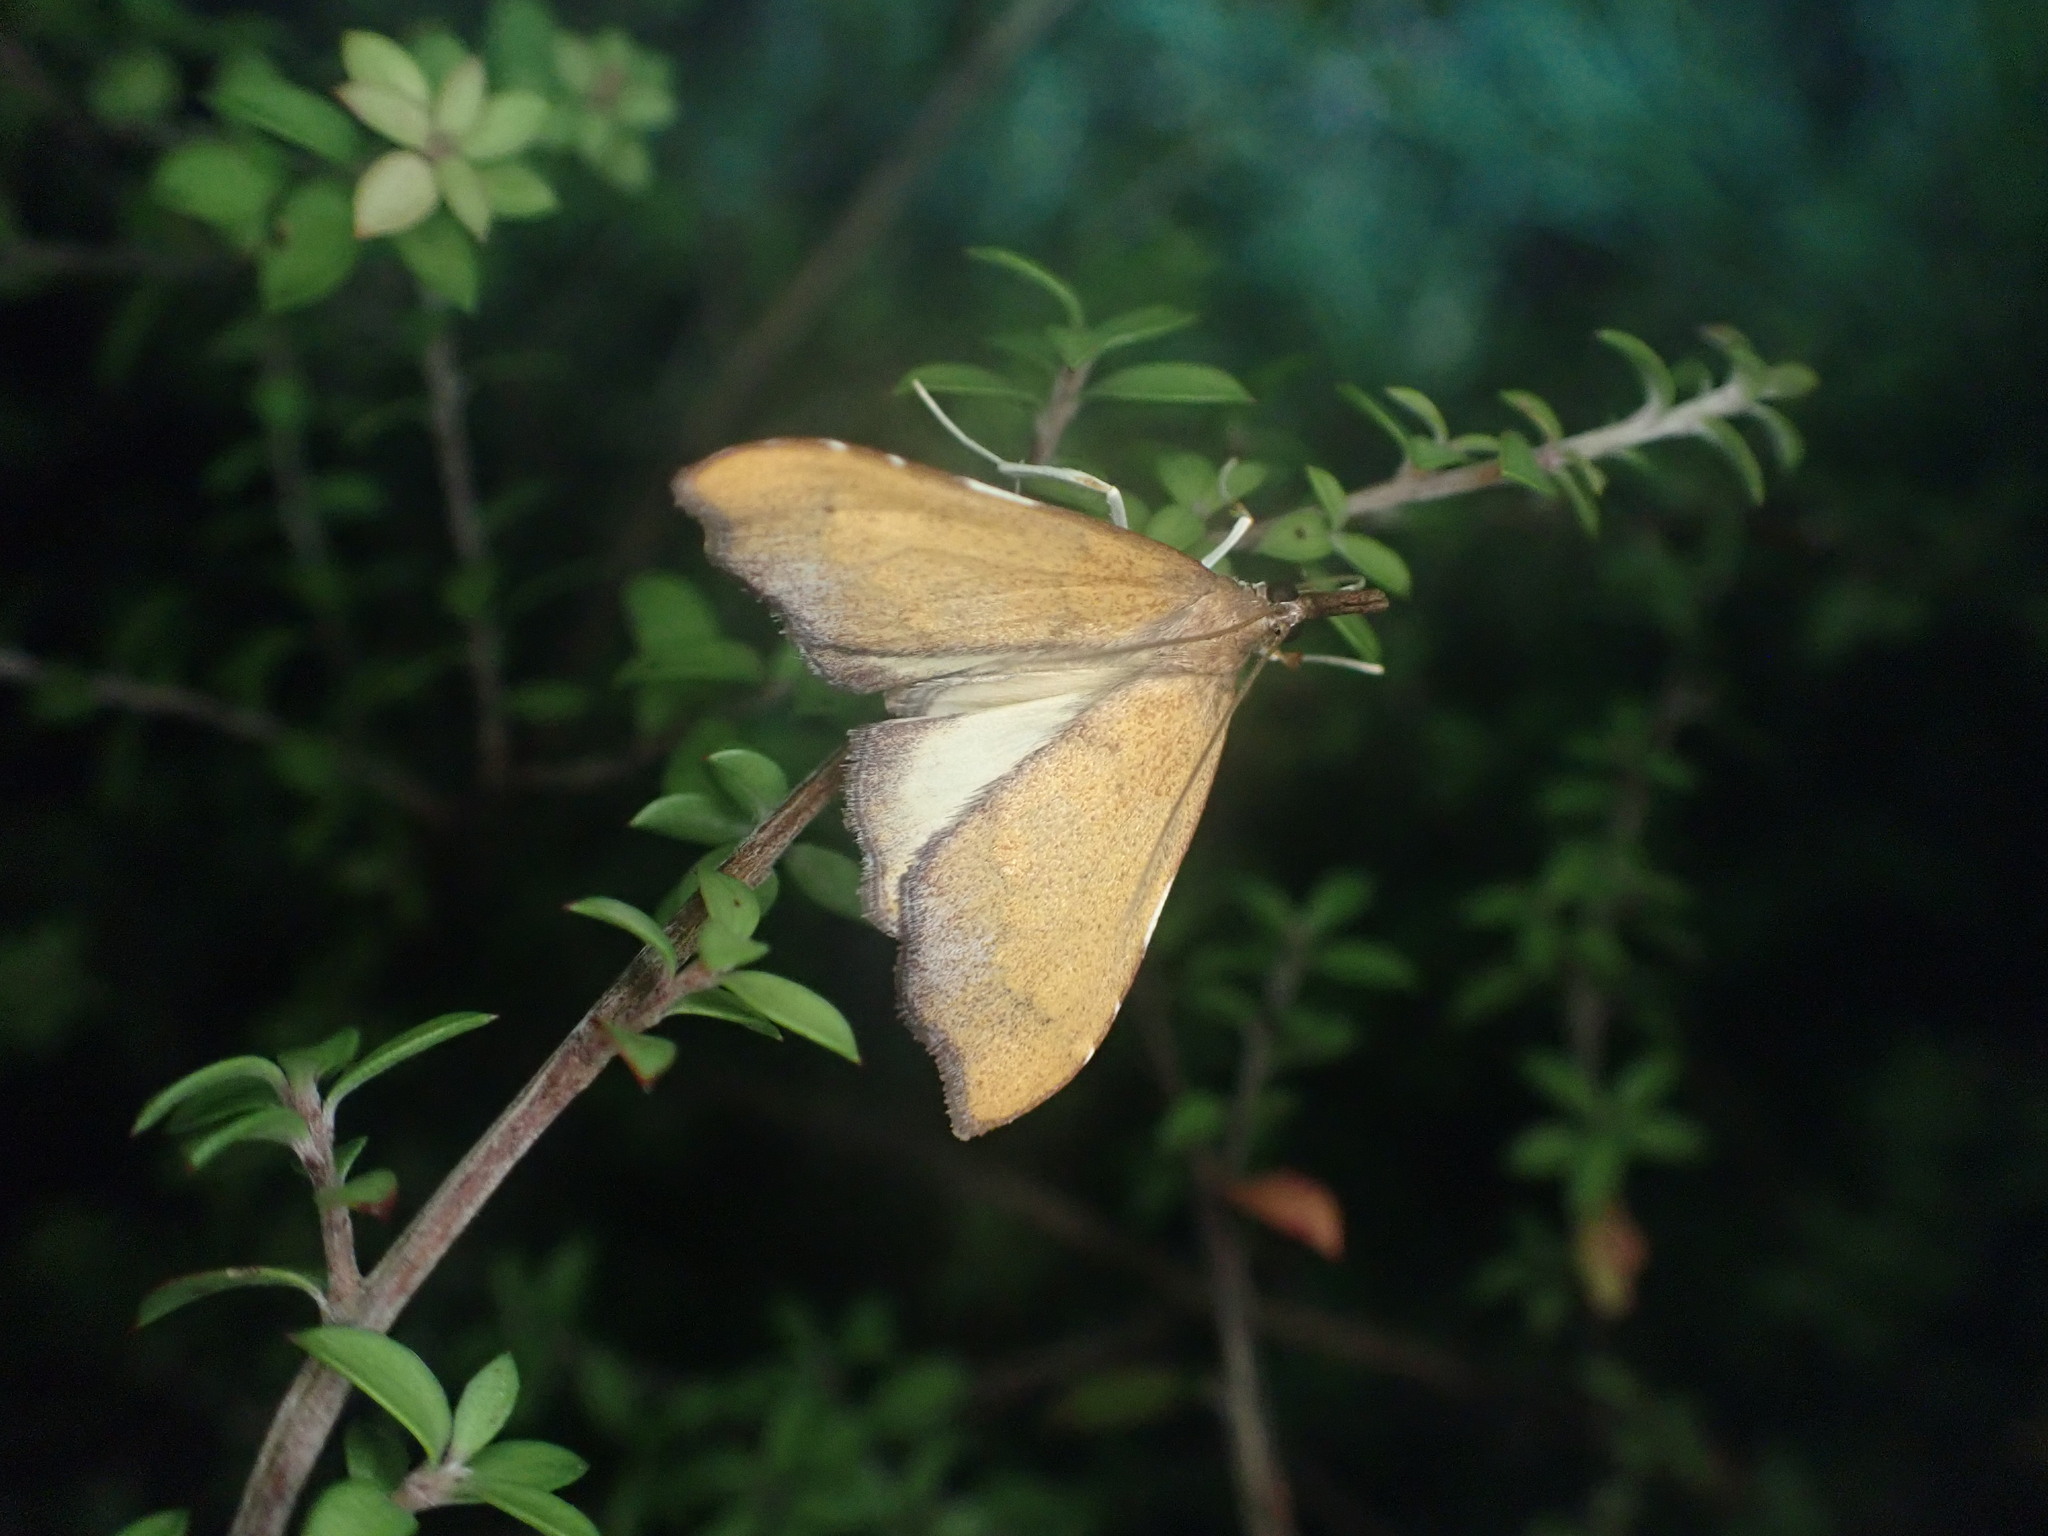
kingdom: Animalia
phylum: Arthropoda
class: Insecta
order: Lepidoptera
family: Crambidae
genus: Deana
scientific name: Deana hybreasalis
